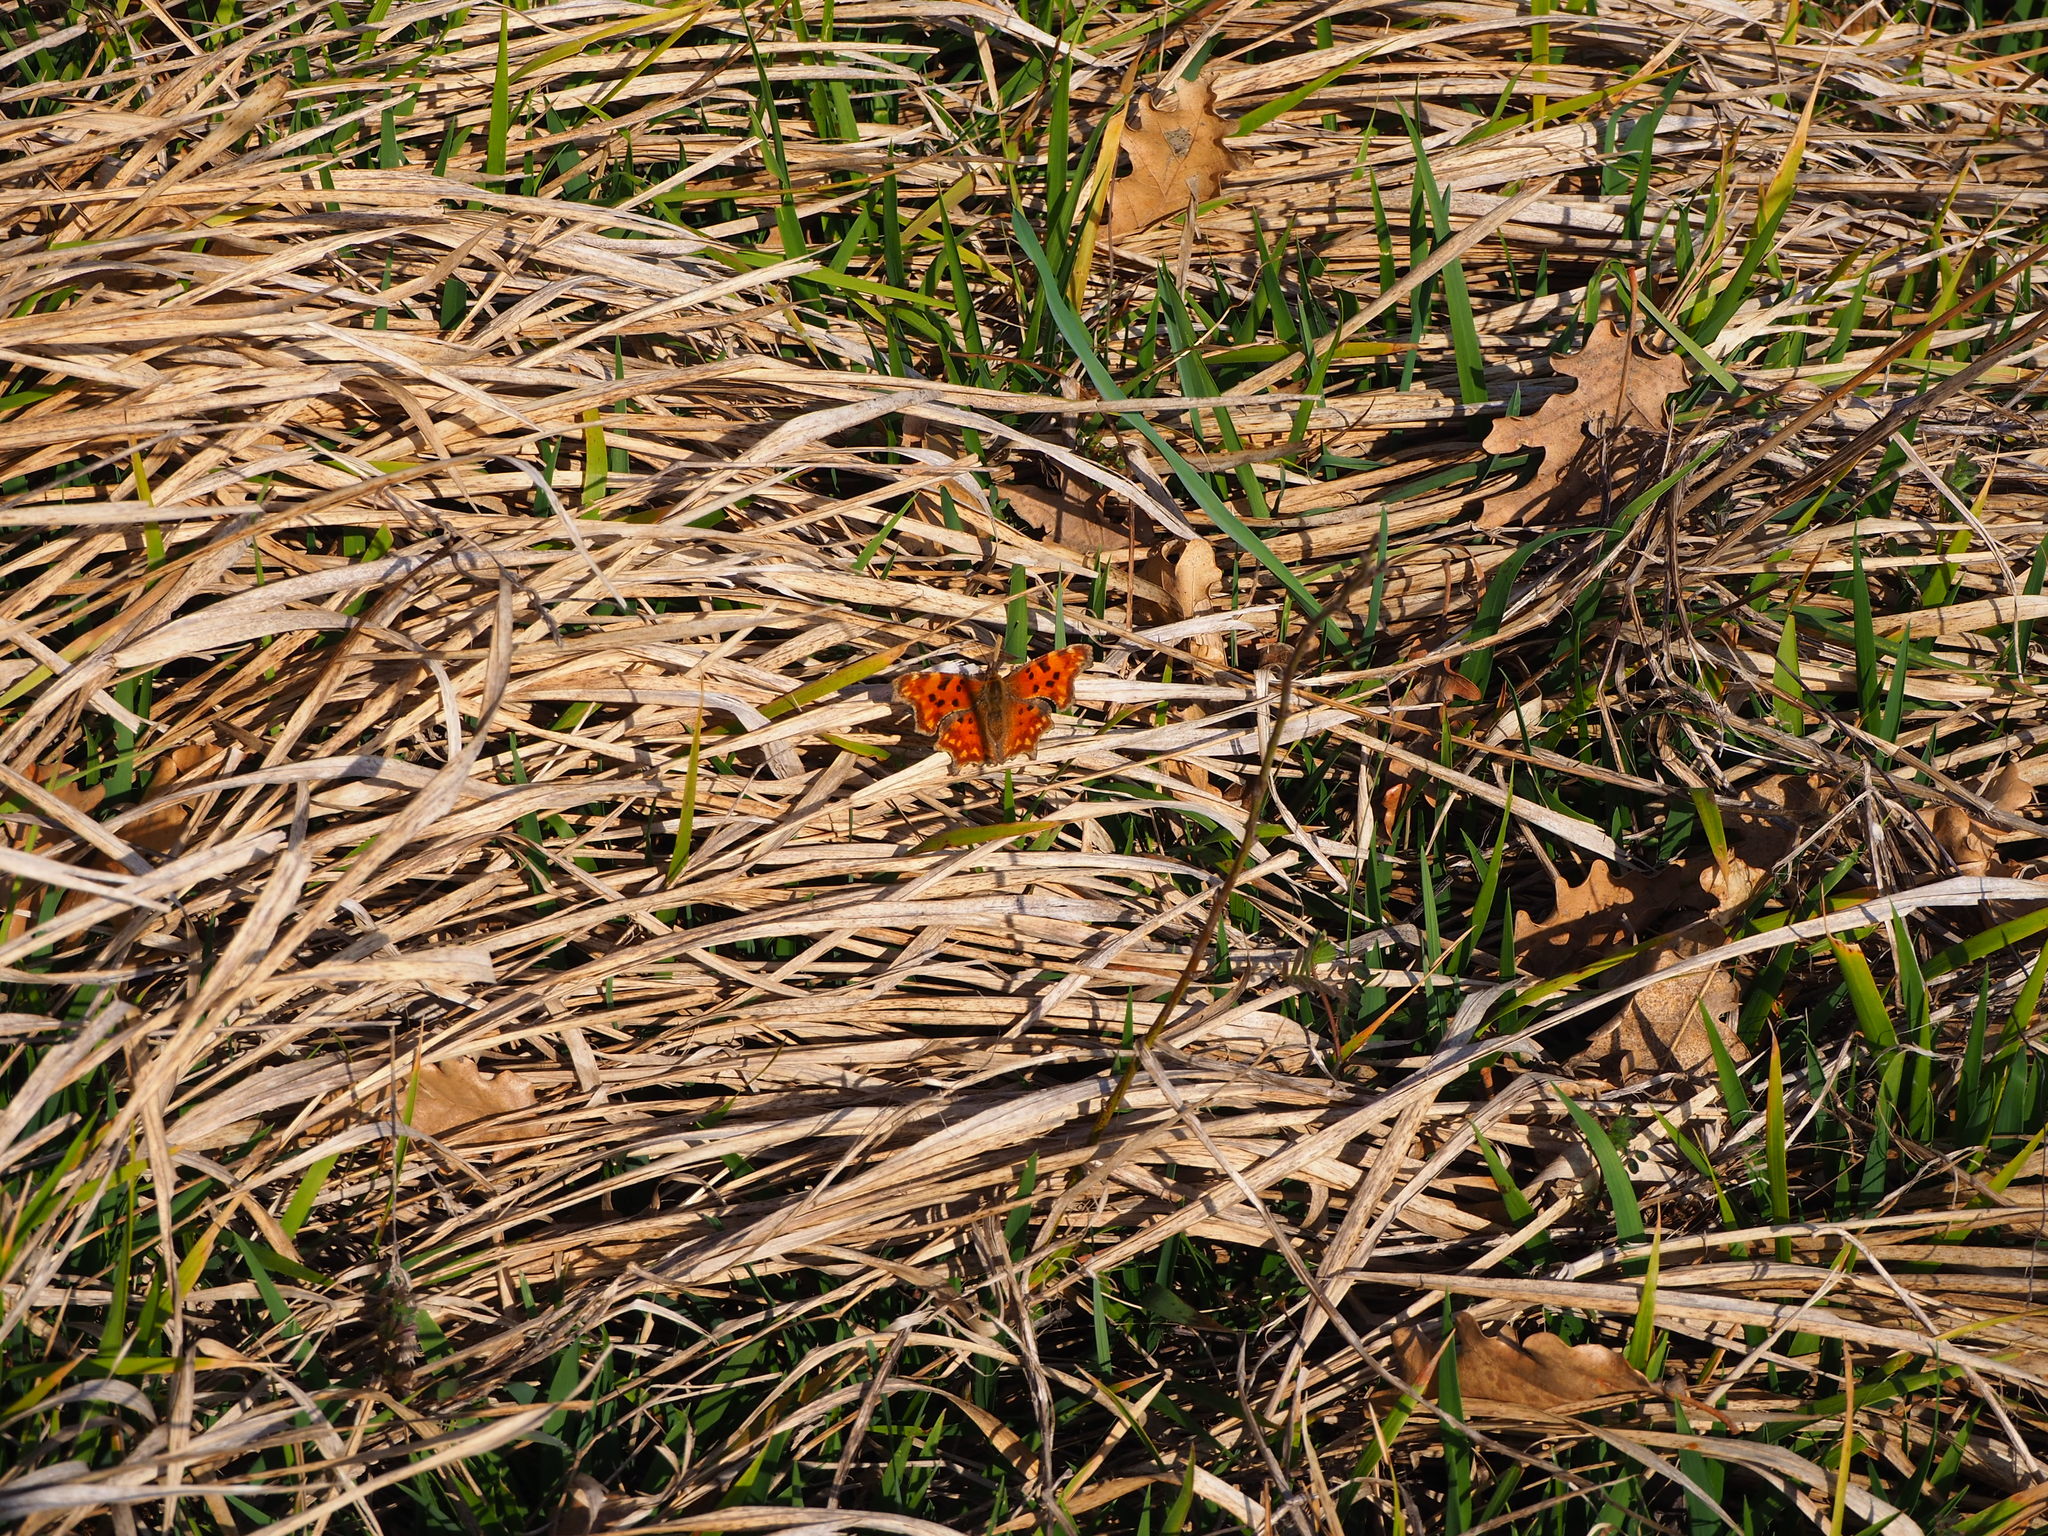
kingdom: Animalia
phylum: Arthropoda
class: Insecta
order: Lepidoptera
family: Nymphalidae
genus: Polygonia
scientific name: Polygonia c-album
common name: Comma
